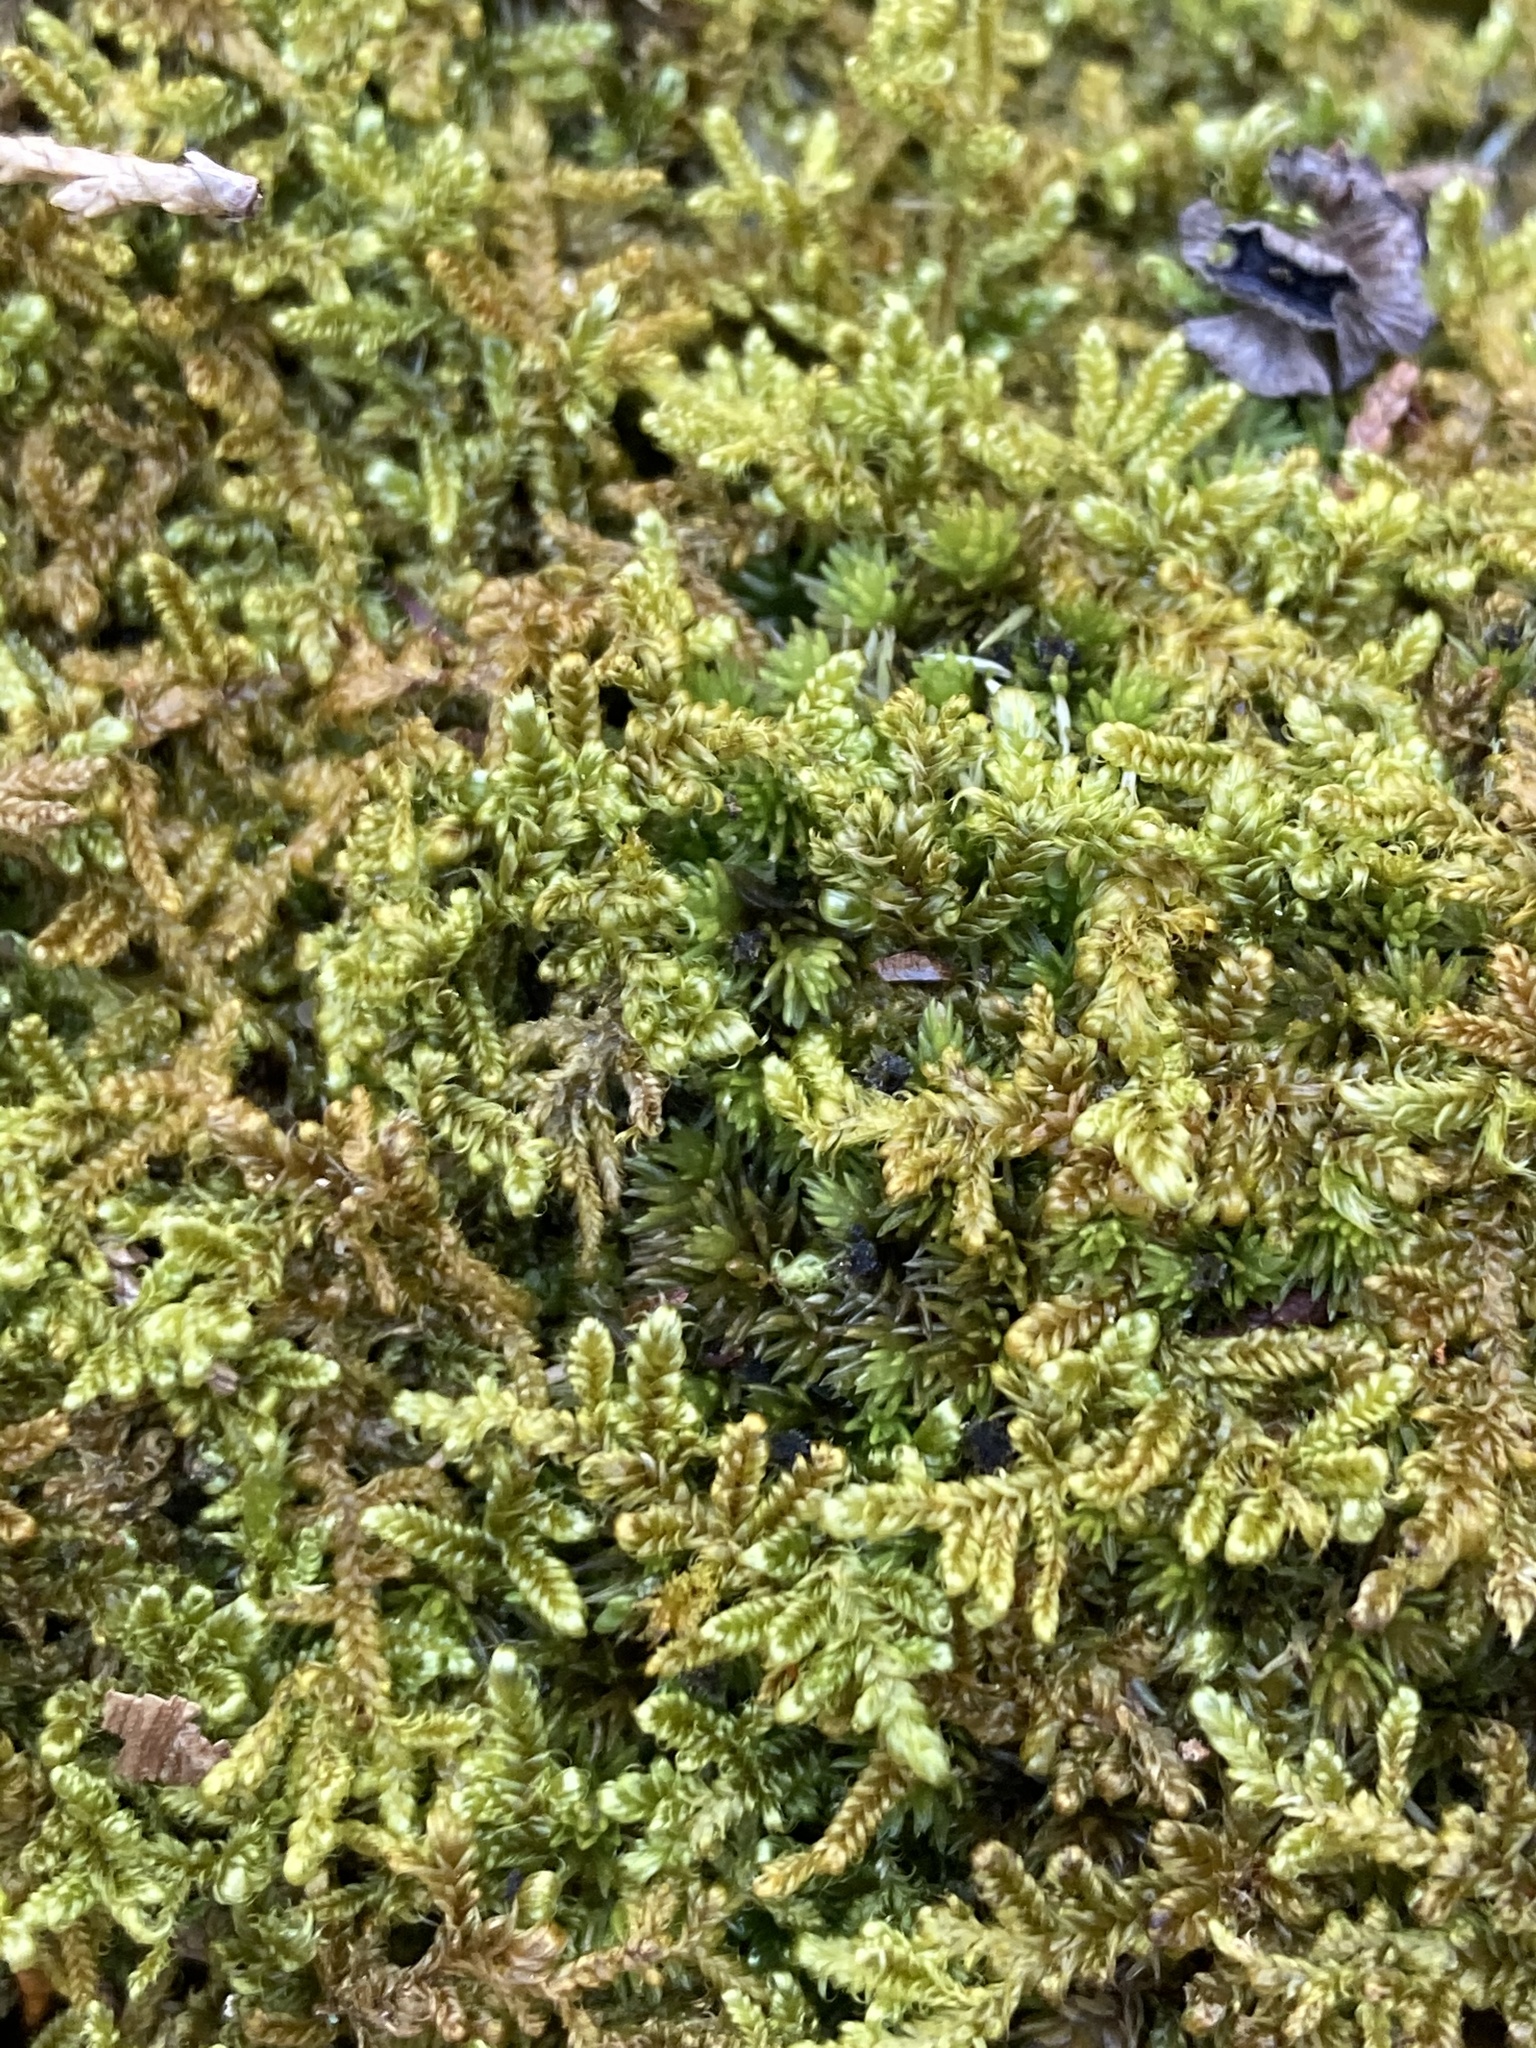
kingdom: Plantae
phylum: Bryophyta
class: Bryopsida
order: Hypnales
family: Callicladiaceae
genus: Callicladium
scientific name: Callicladium imponens
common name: Brocade moss
